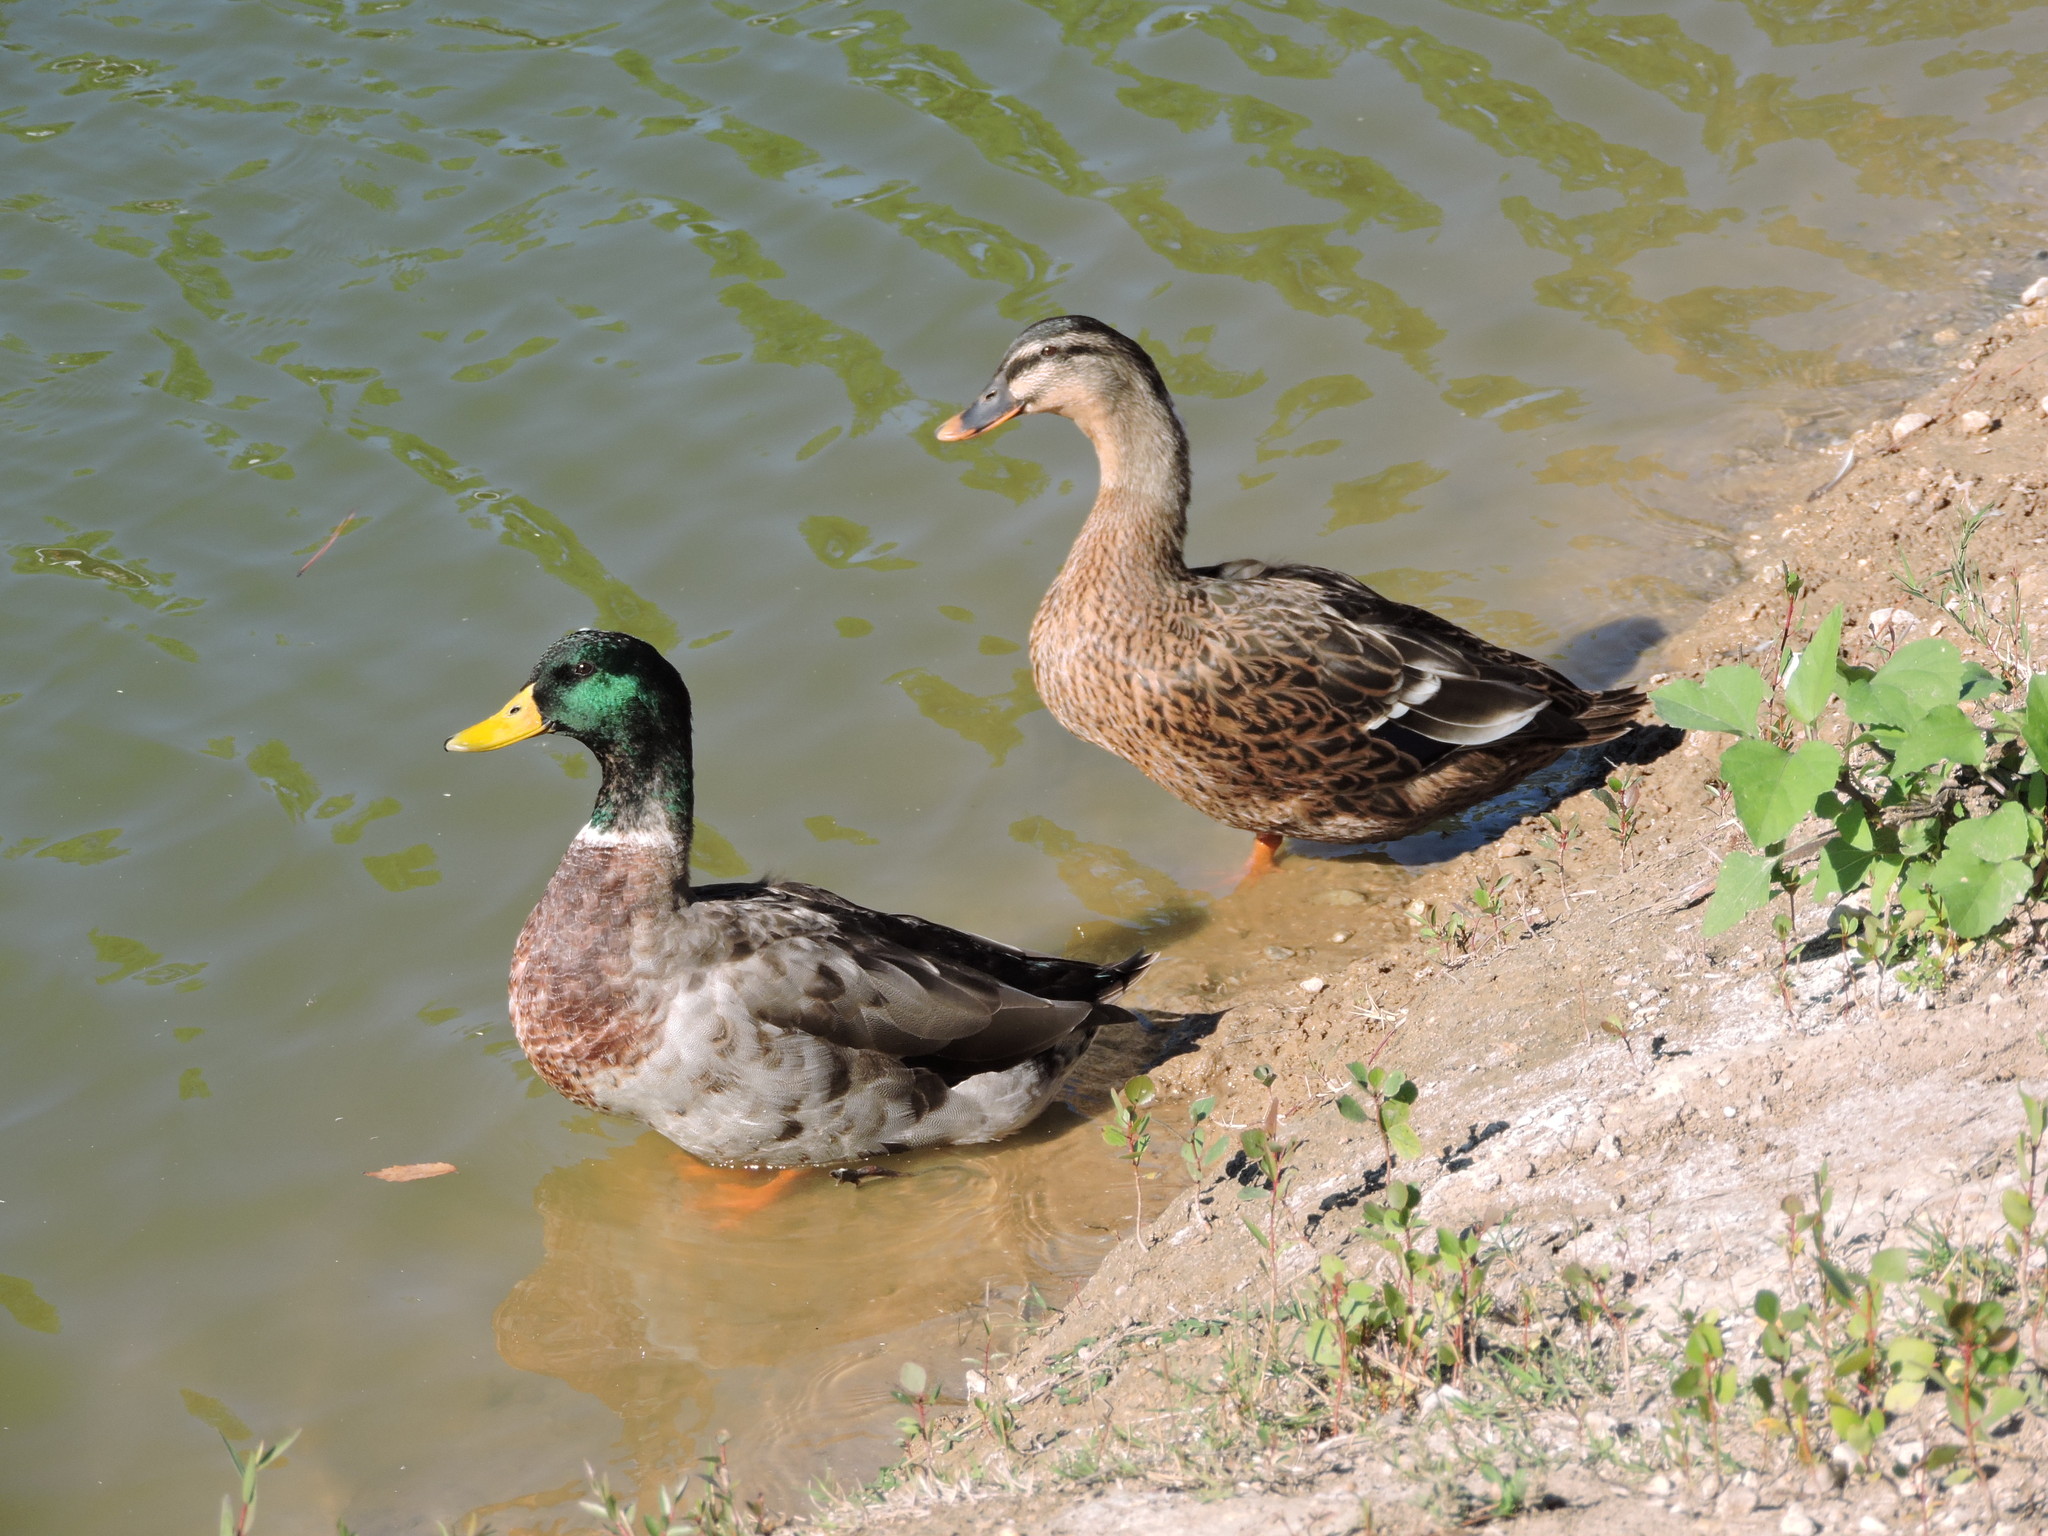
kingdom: Animalia
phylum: Chordata
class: Aves
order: Anseriformes
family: Anatidae
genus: Anas
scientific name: Anas platyrhynchos
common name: Mallard
